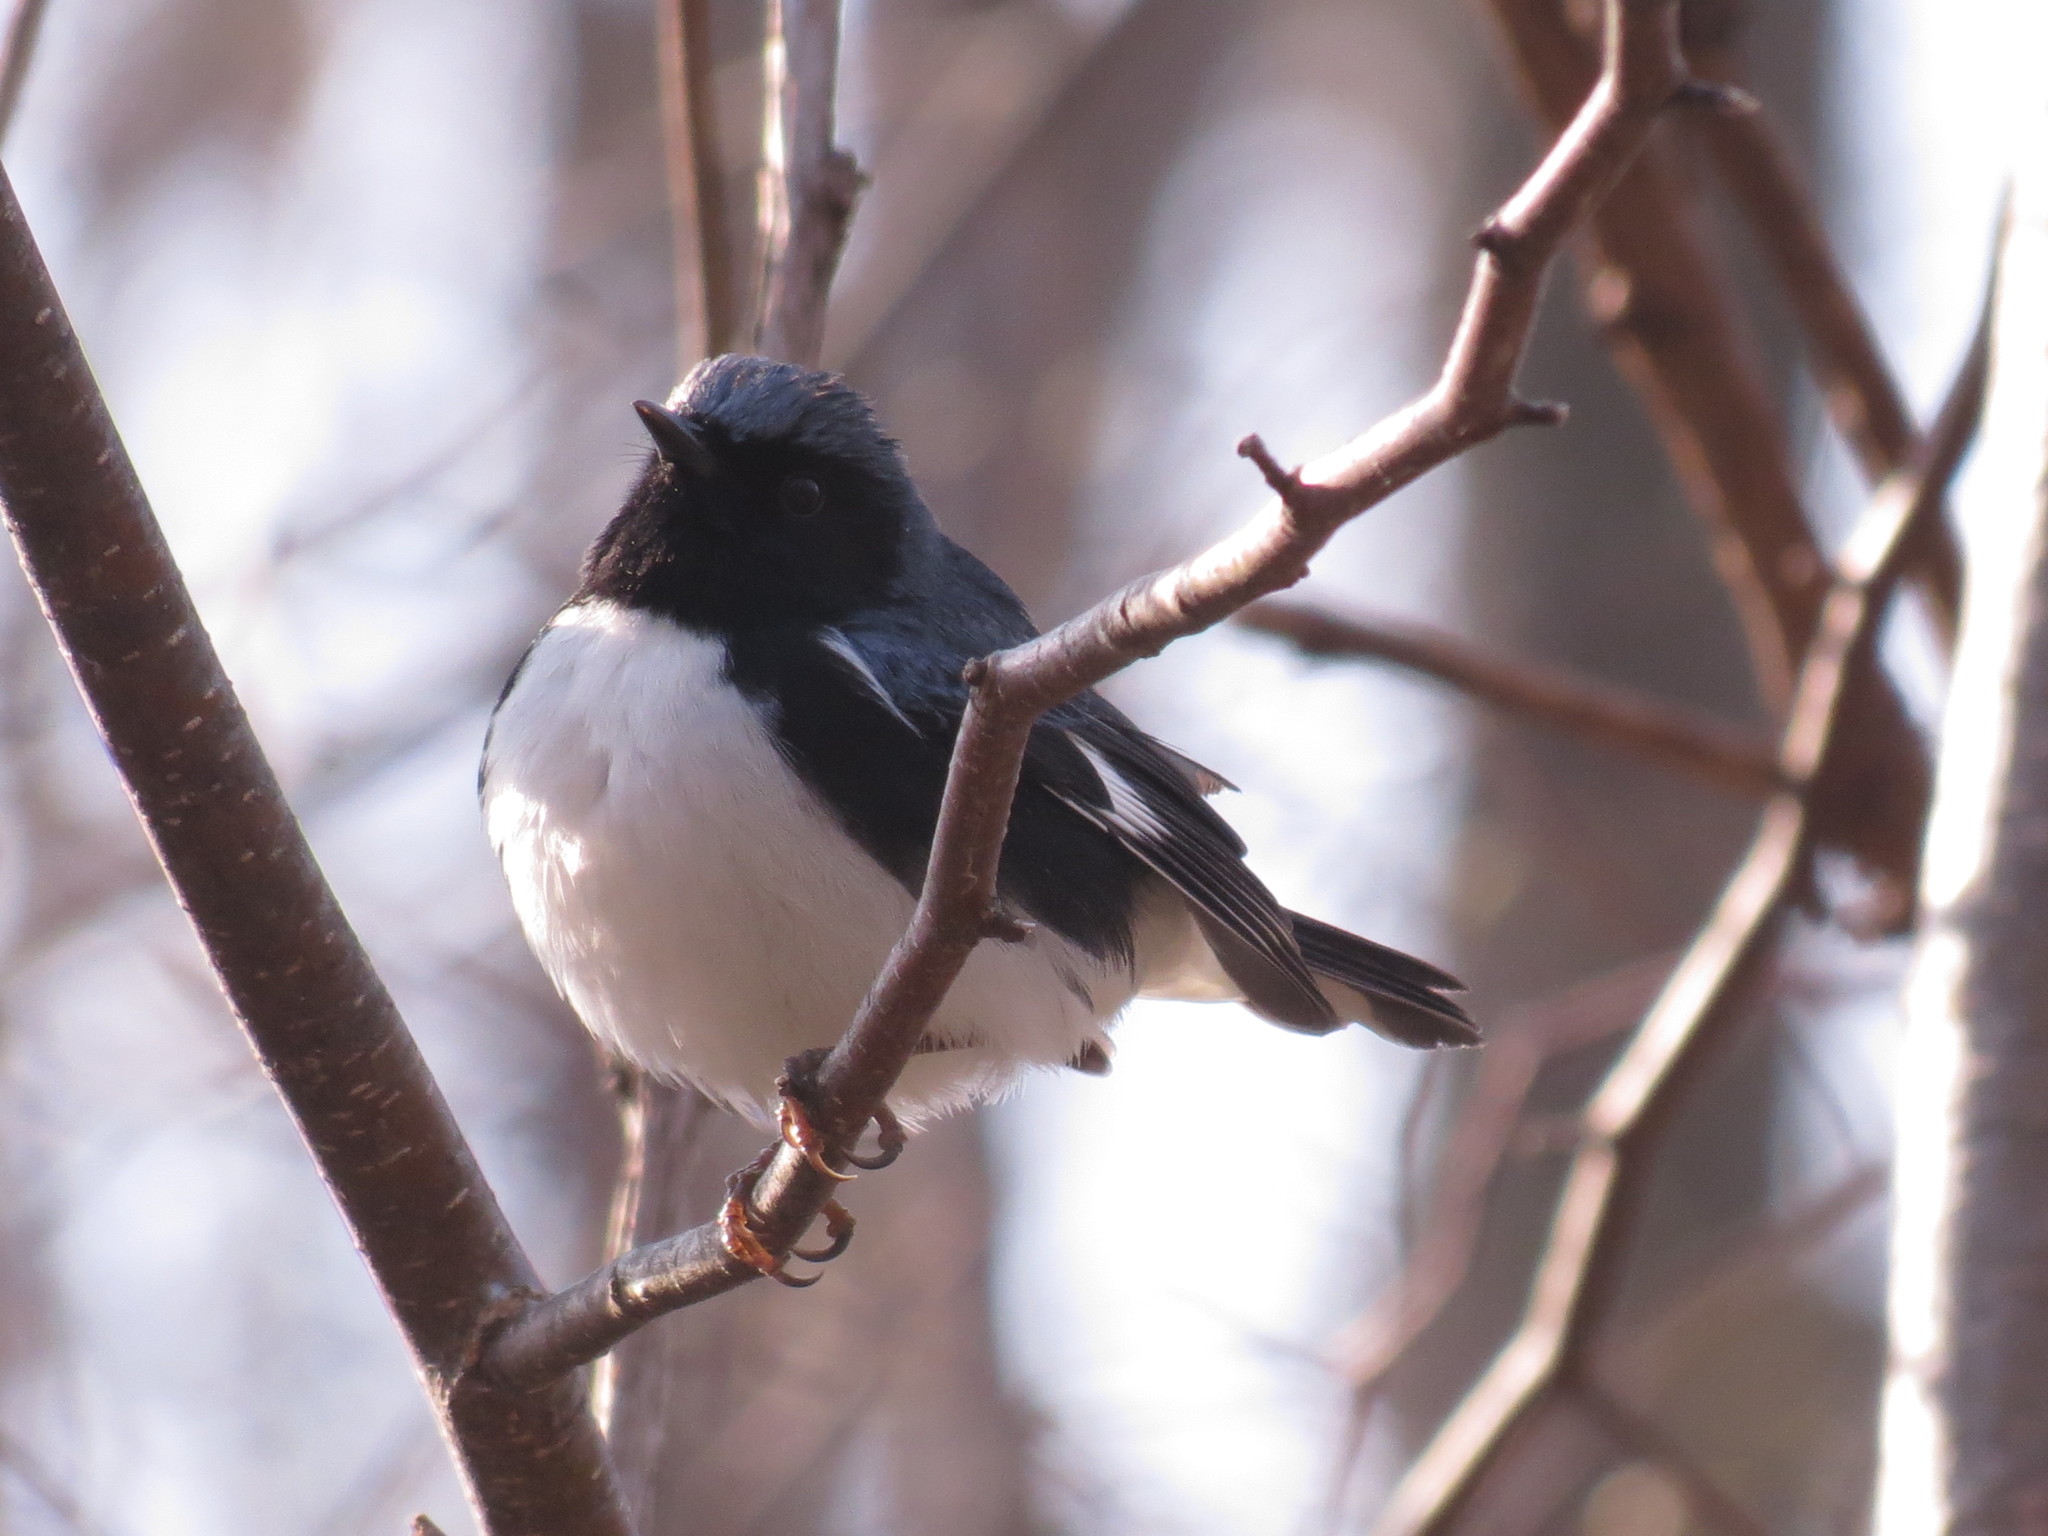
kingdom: Animalia
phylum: Chordata
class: Aves
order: Passeriformes
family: Parulidae
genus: Setophaga
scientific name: Setophaga caerulescens
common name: Black-throated blue warbler
